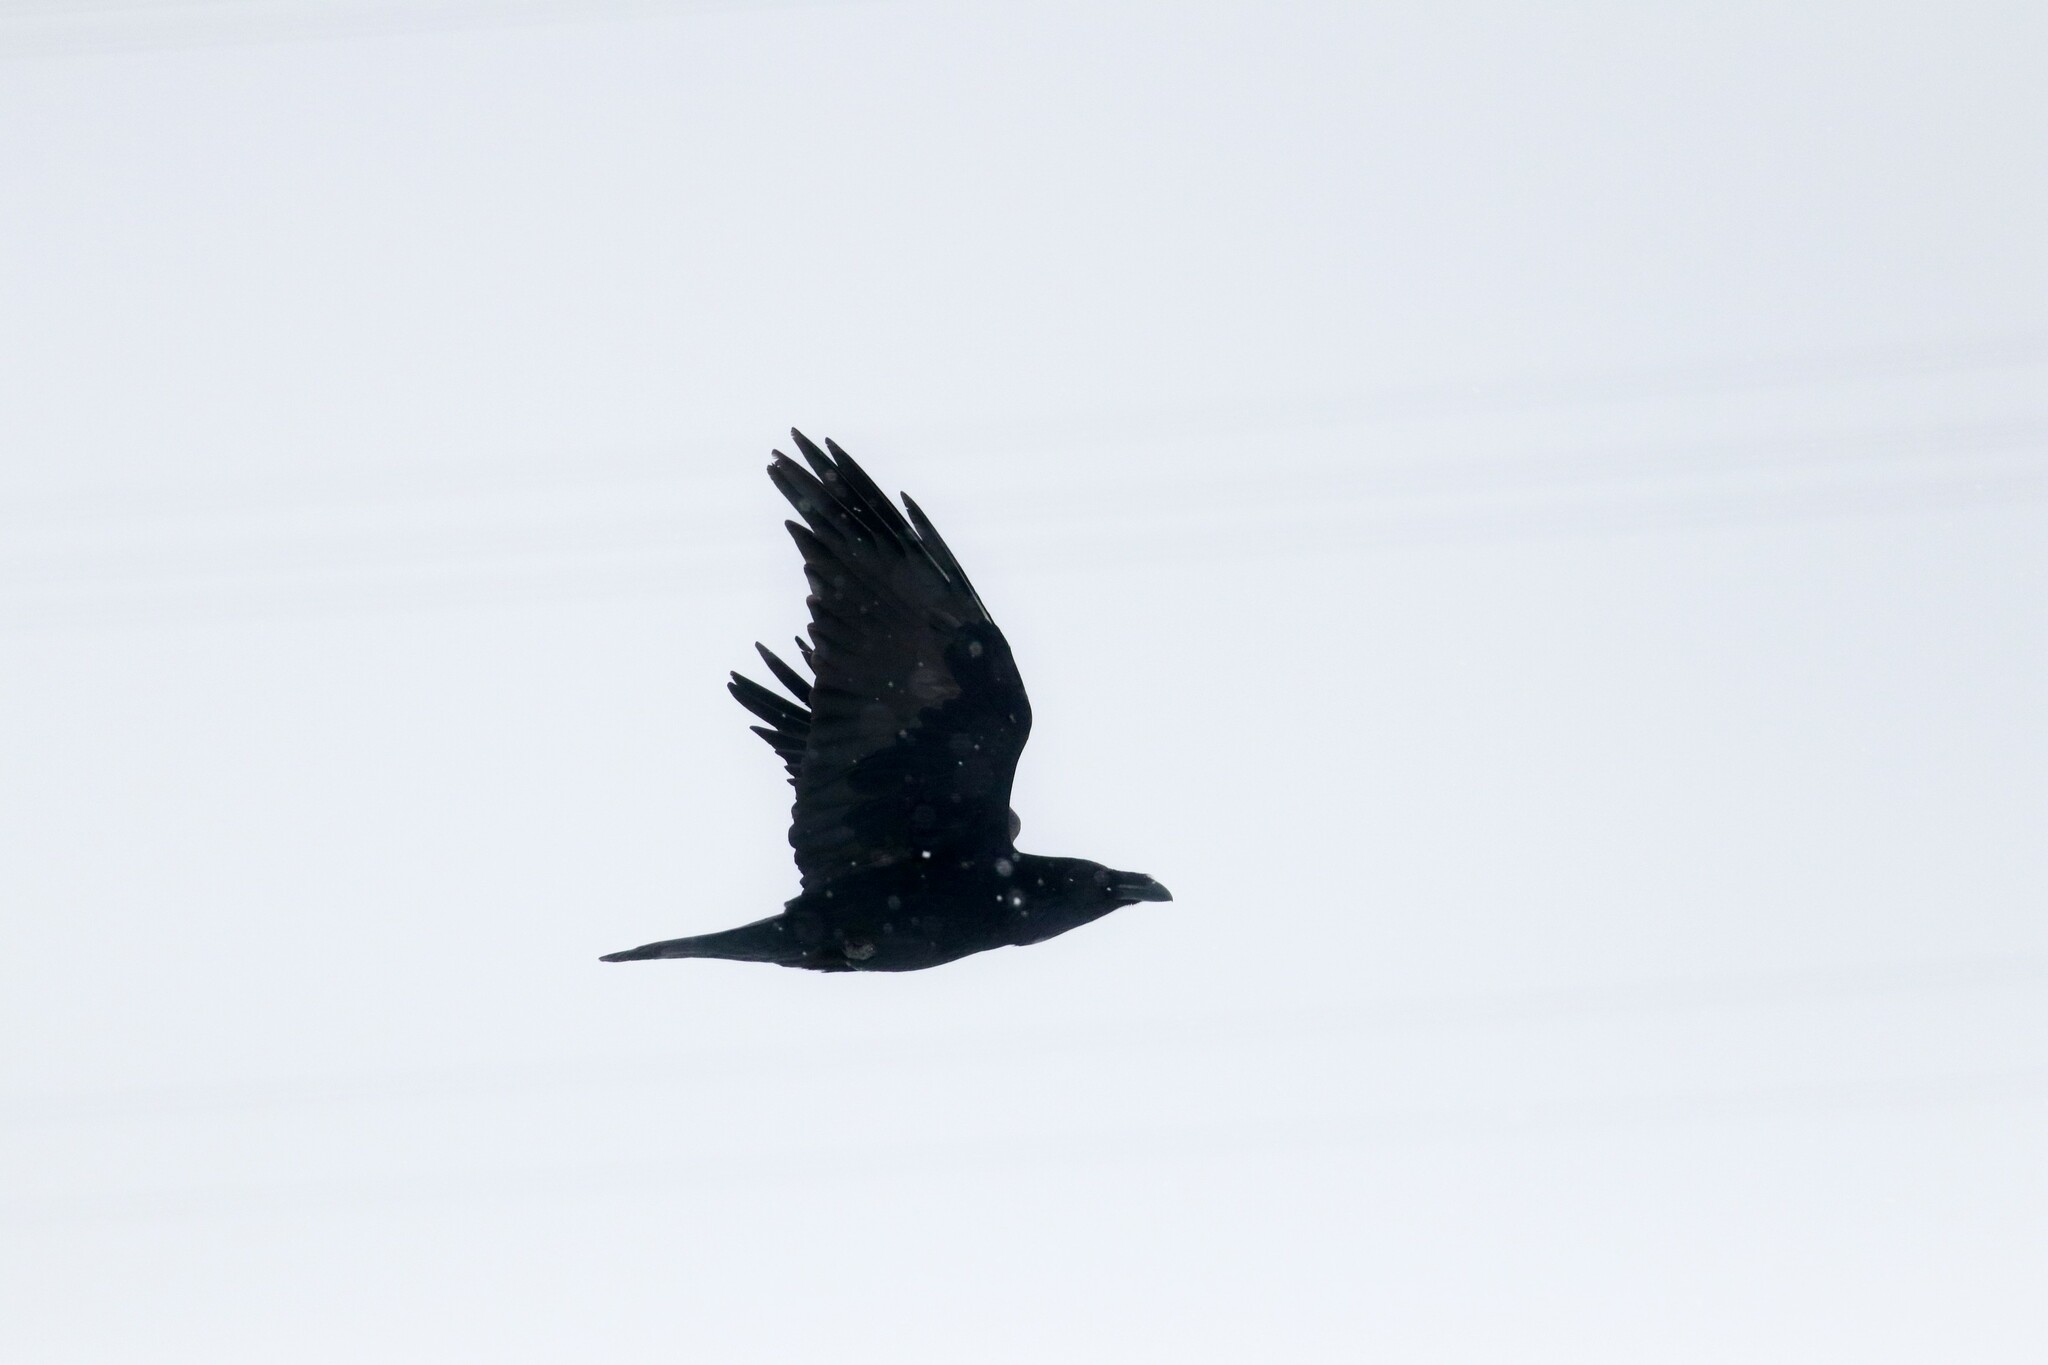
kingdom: Animalia
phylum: Chordata
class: Aves
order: Passeriformes
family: Corvidae
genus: Corvus
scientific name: Corvus corax
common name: Common raven
